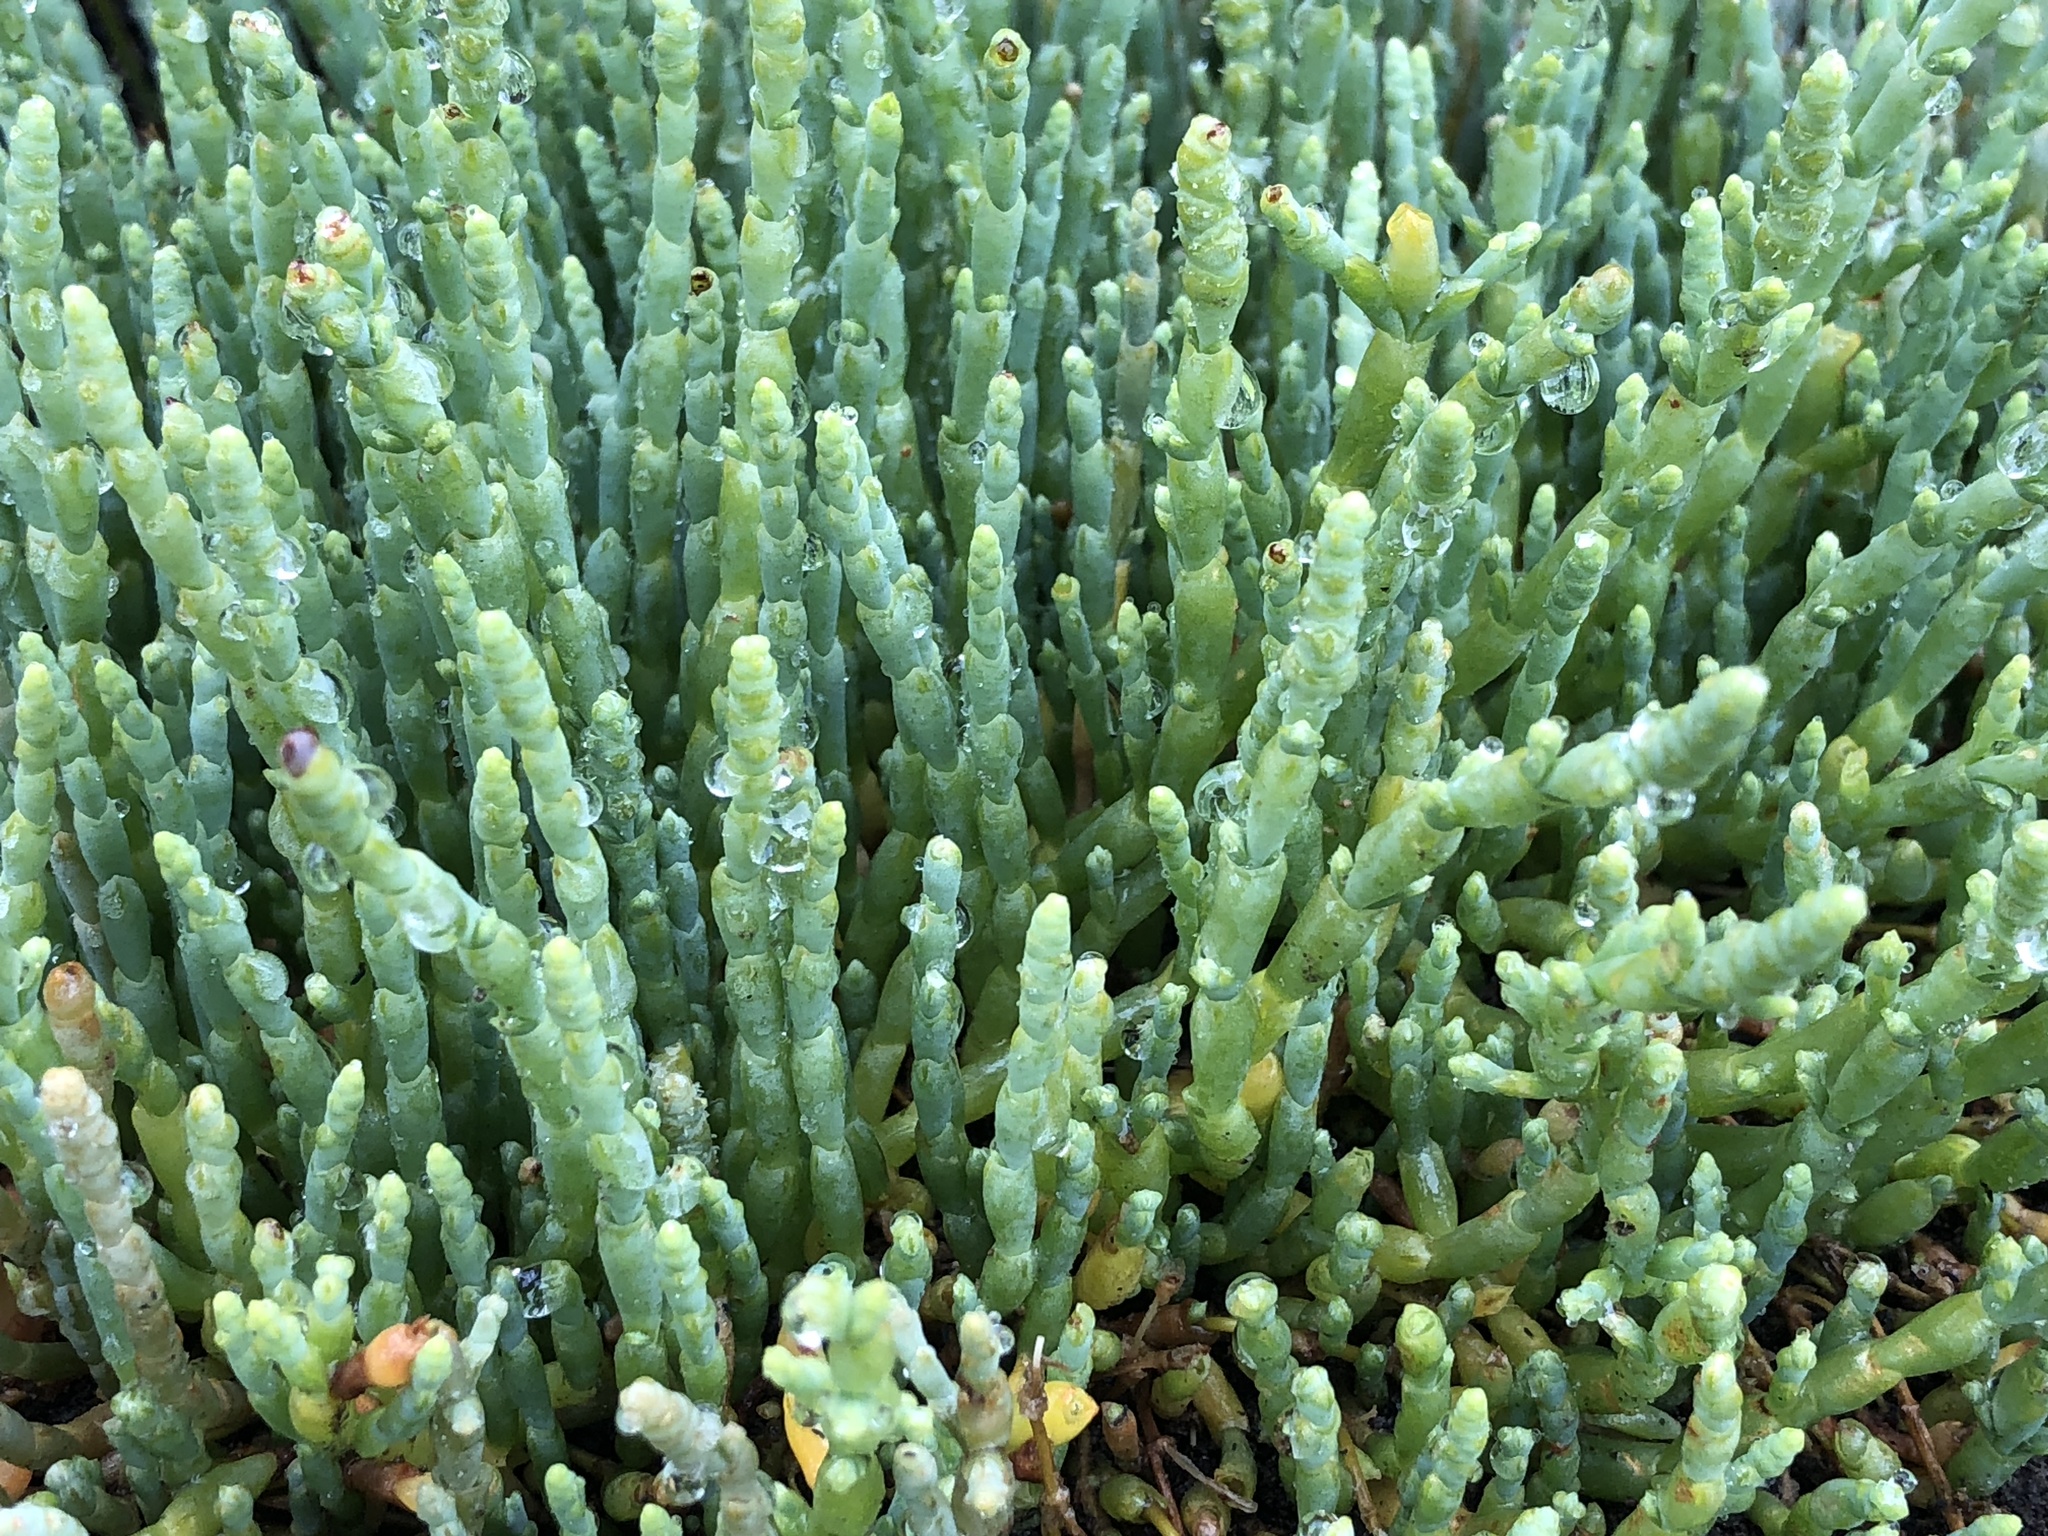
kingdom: Plantae
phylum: Tracheophyta
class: Magnoliopsida
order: Caryophyllales
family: Amaranthaceae
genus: Salicornia
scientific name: Salicornia quinqueflora
